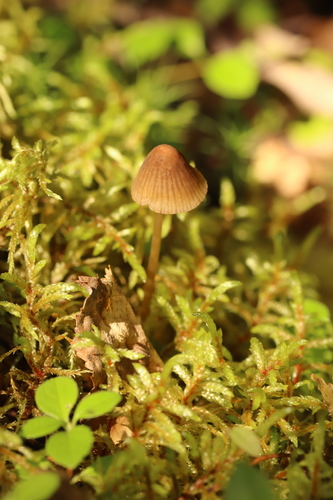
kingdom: Fungi
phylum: Basidiomycota
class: Agaricomycetes
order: Agaricales
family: Mycenaceae
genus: Mycena
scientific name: Mycena viridimarginata
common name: Olive edge bonnet
